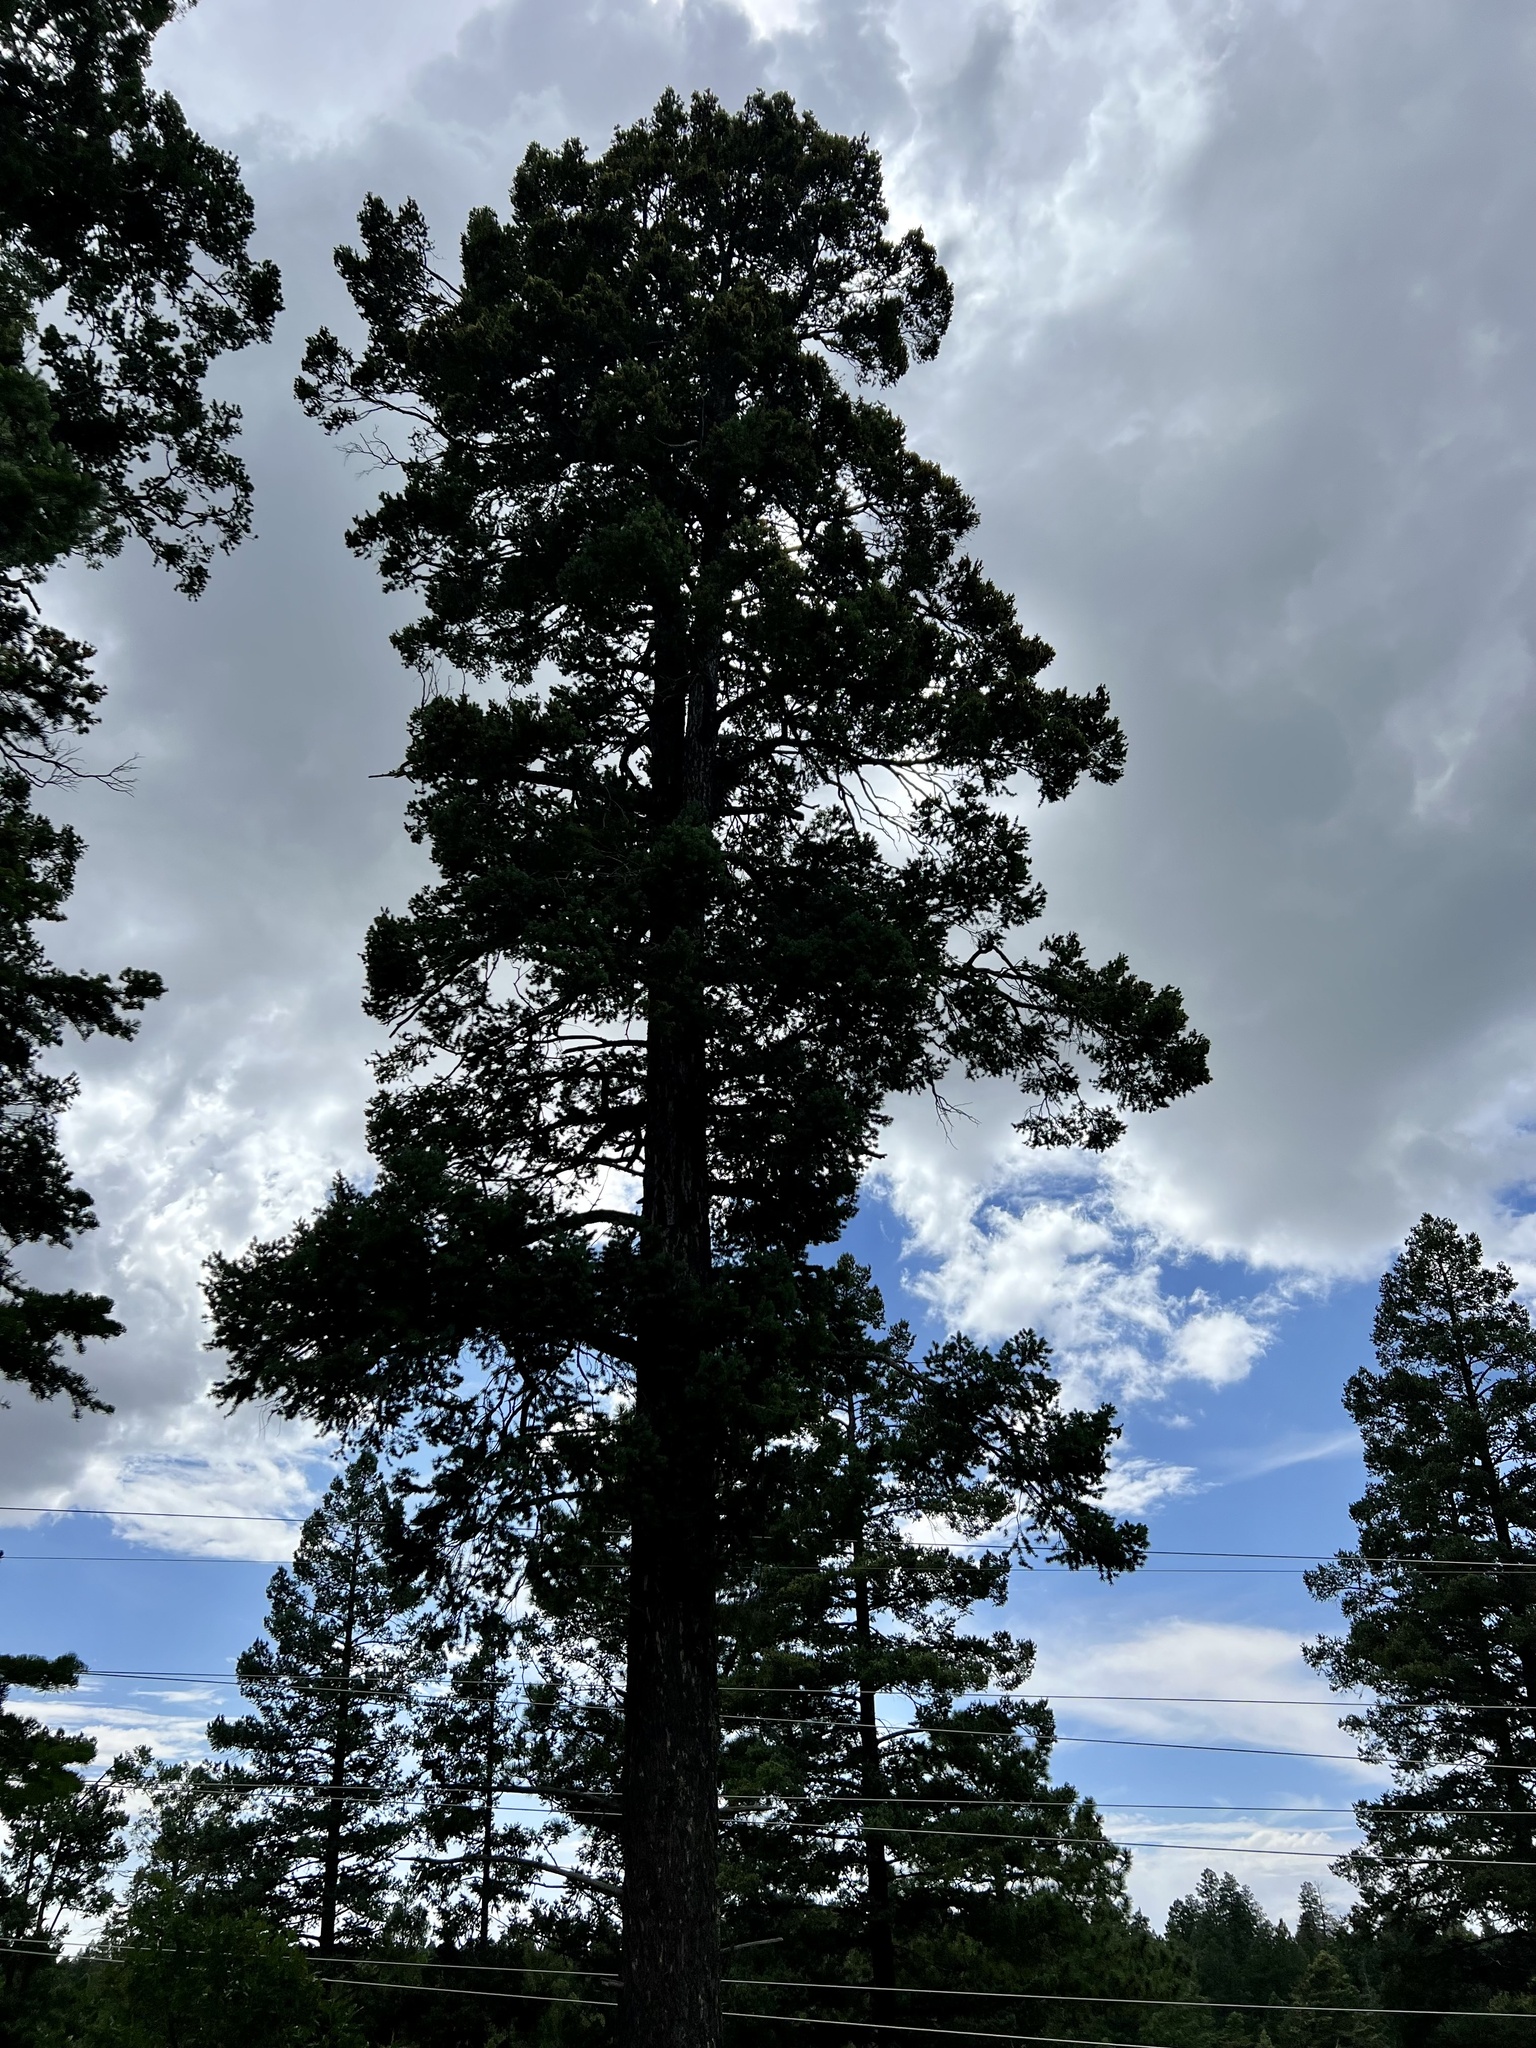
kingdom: Plantae
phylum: Tracheophyta
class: Pinopsida
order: Pinales
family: Pinaceae
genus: Pseudotsuga
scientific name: Pseudotsuga menziesii
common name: Douglas fir
